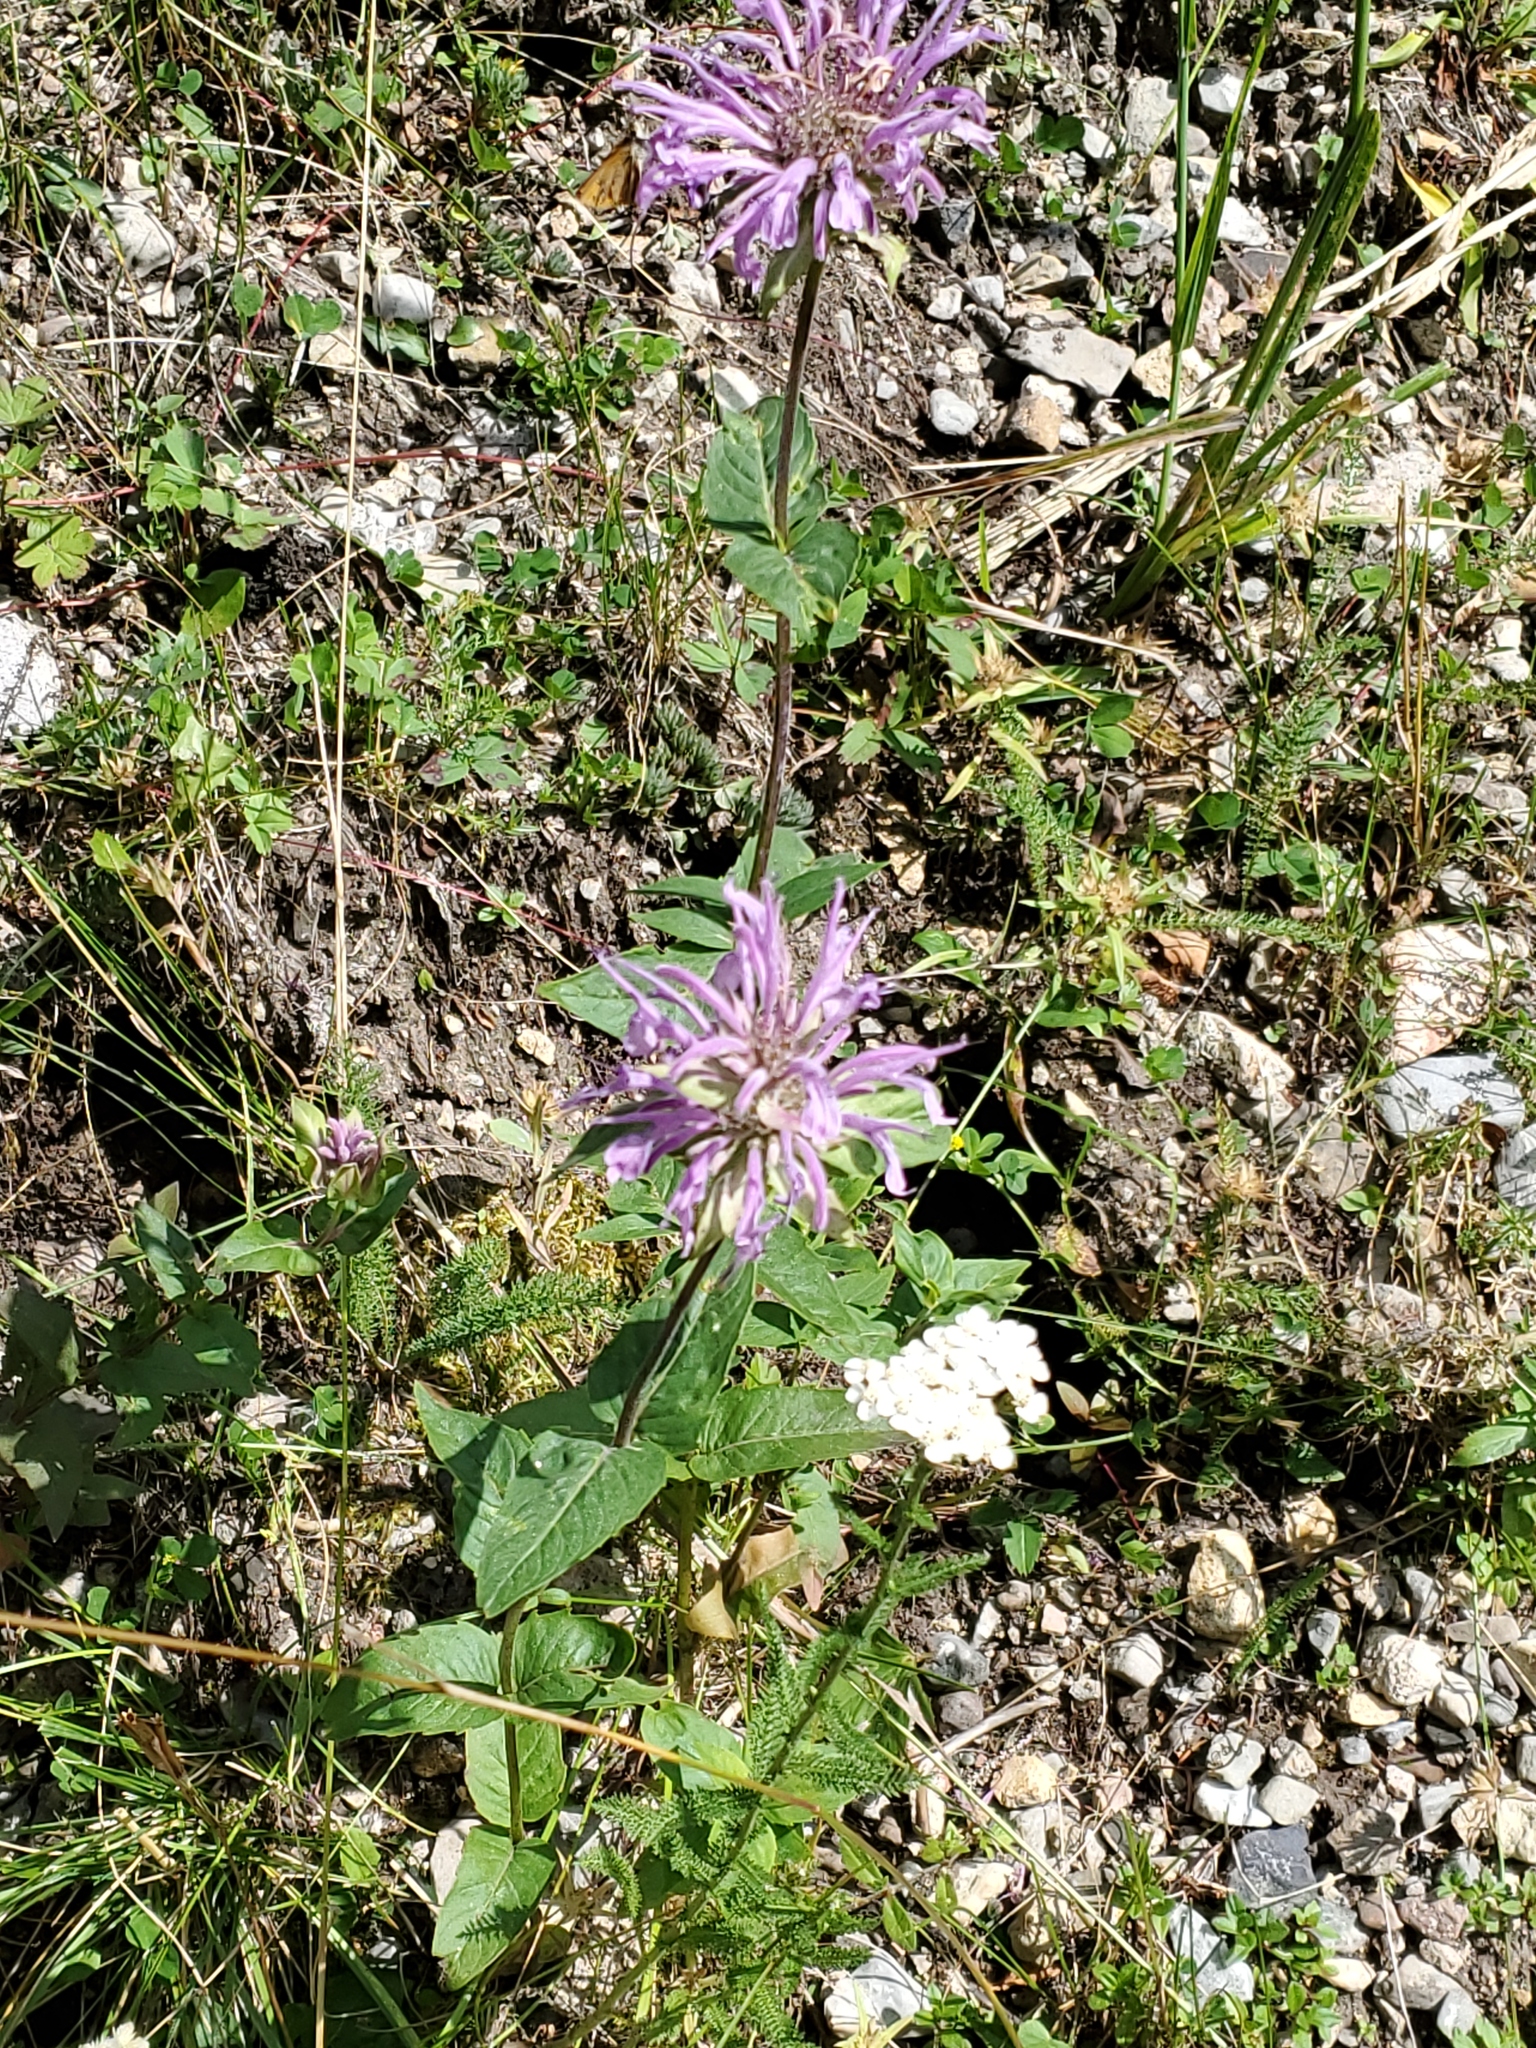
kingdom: Plantae
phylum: Tracheophyta
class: Magnoliopsida
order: Lamiales
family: Lamiaceae
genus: Monarda
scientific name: Monarda fistulosa
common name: Purple beebalm
